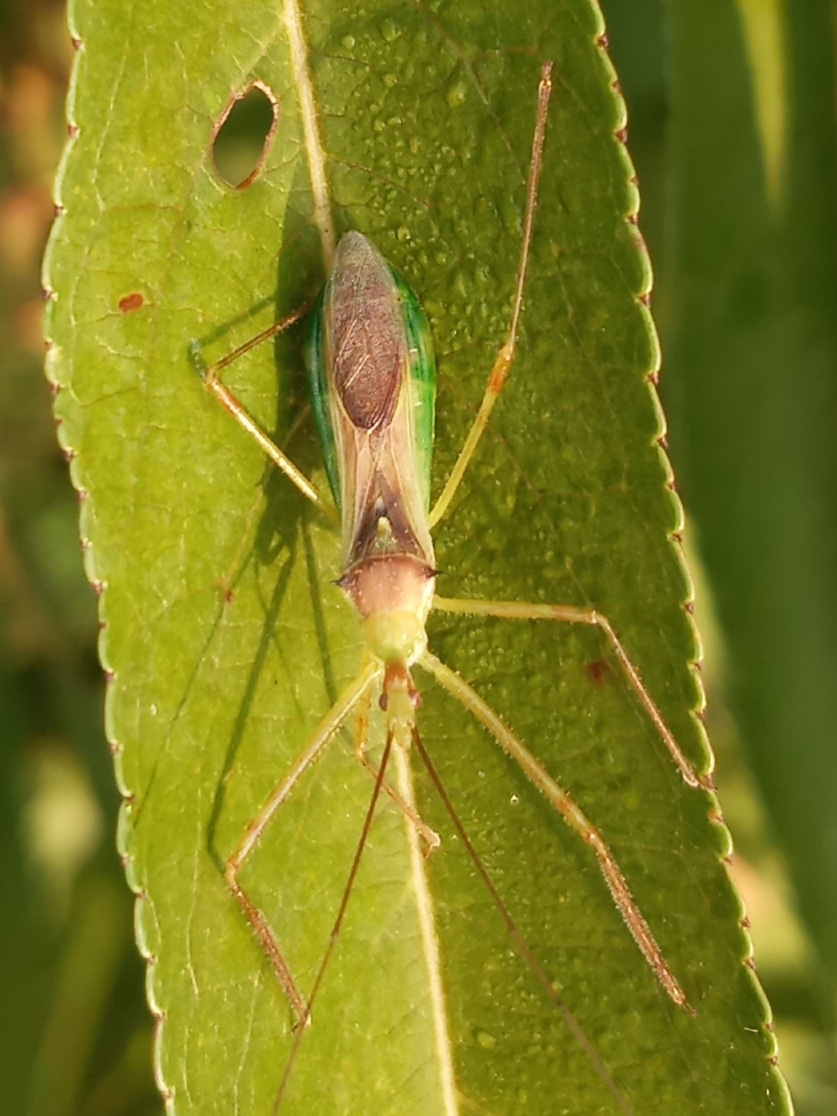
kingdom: Animalia
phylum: Arthropoda
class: Insecta
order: Hemiptera
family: Reduviidae
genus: Zelus
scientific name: Zelus luridus
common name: Pale green assassin bug
